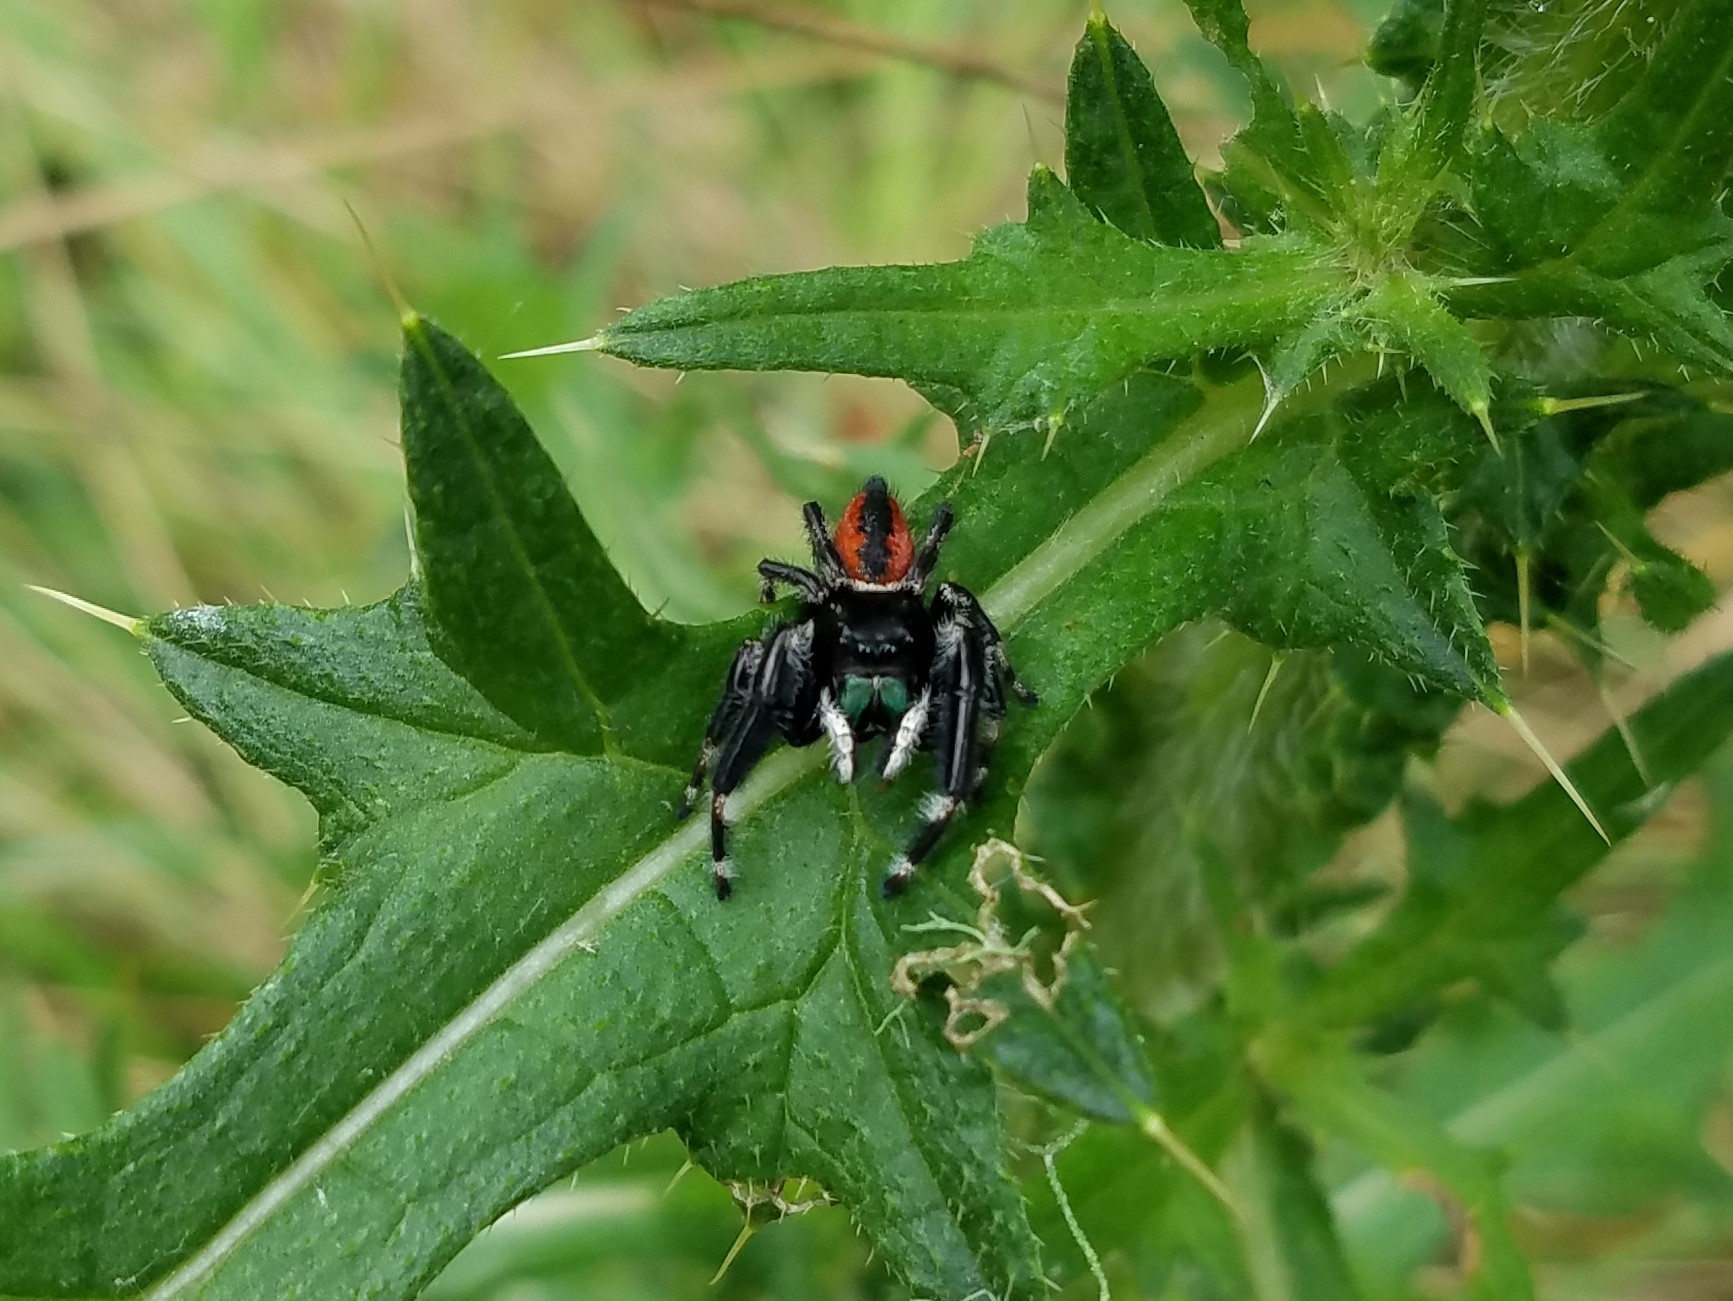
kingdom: Animalia
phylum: Arthropoda
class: Arachnida
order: Araneae
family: Salticidae
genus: Phidippus
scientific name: Phidippus clarus
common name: Brilliant jumping spider
